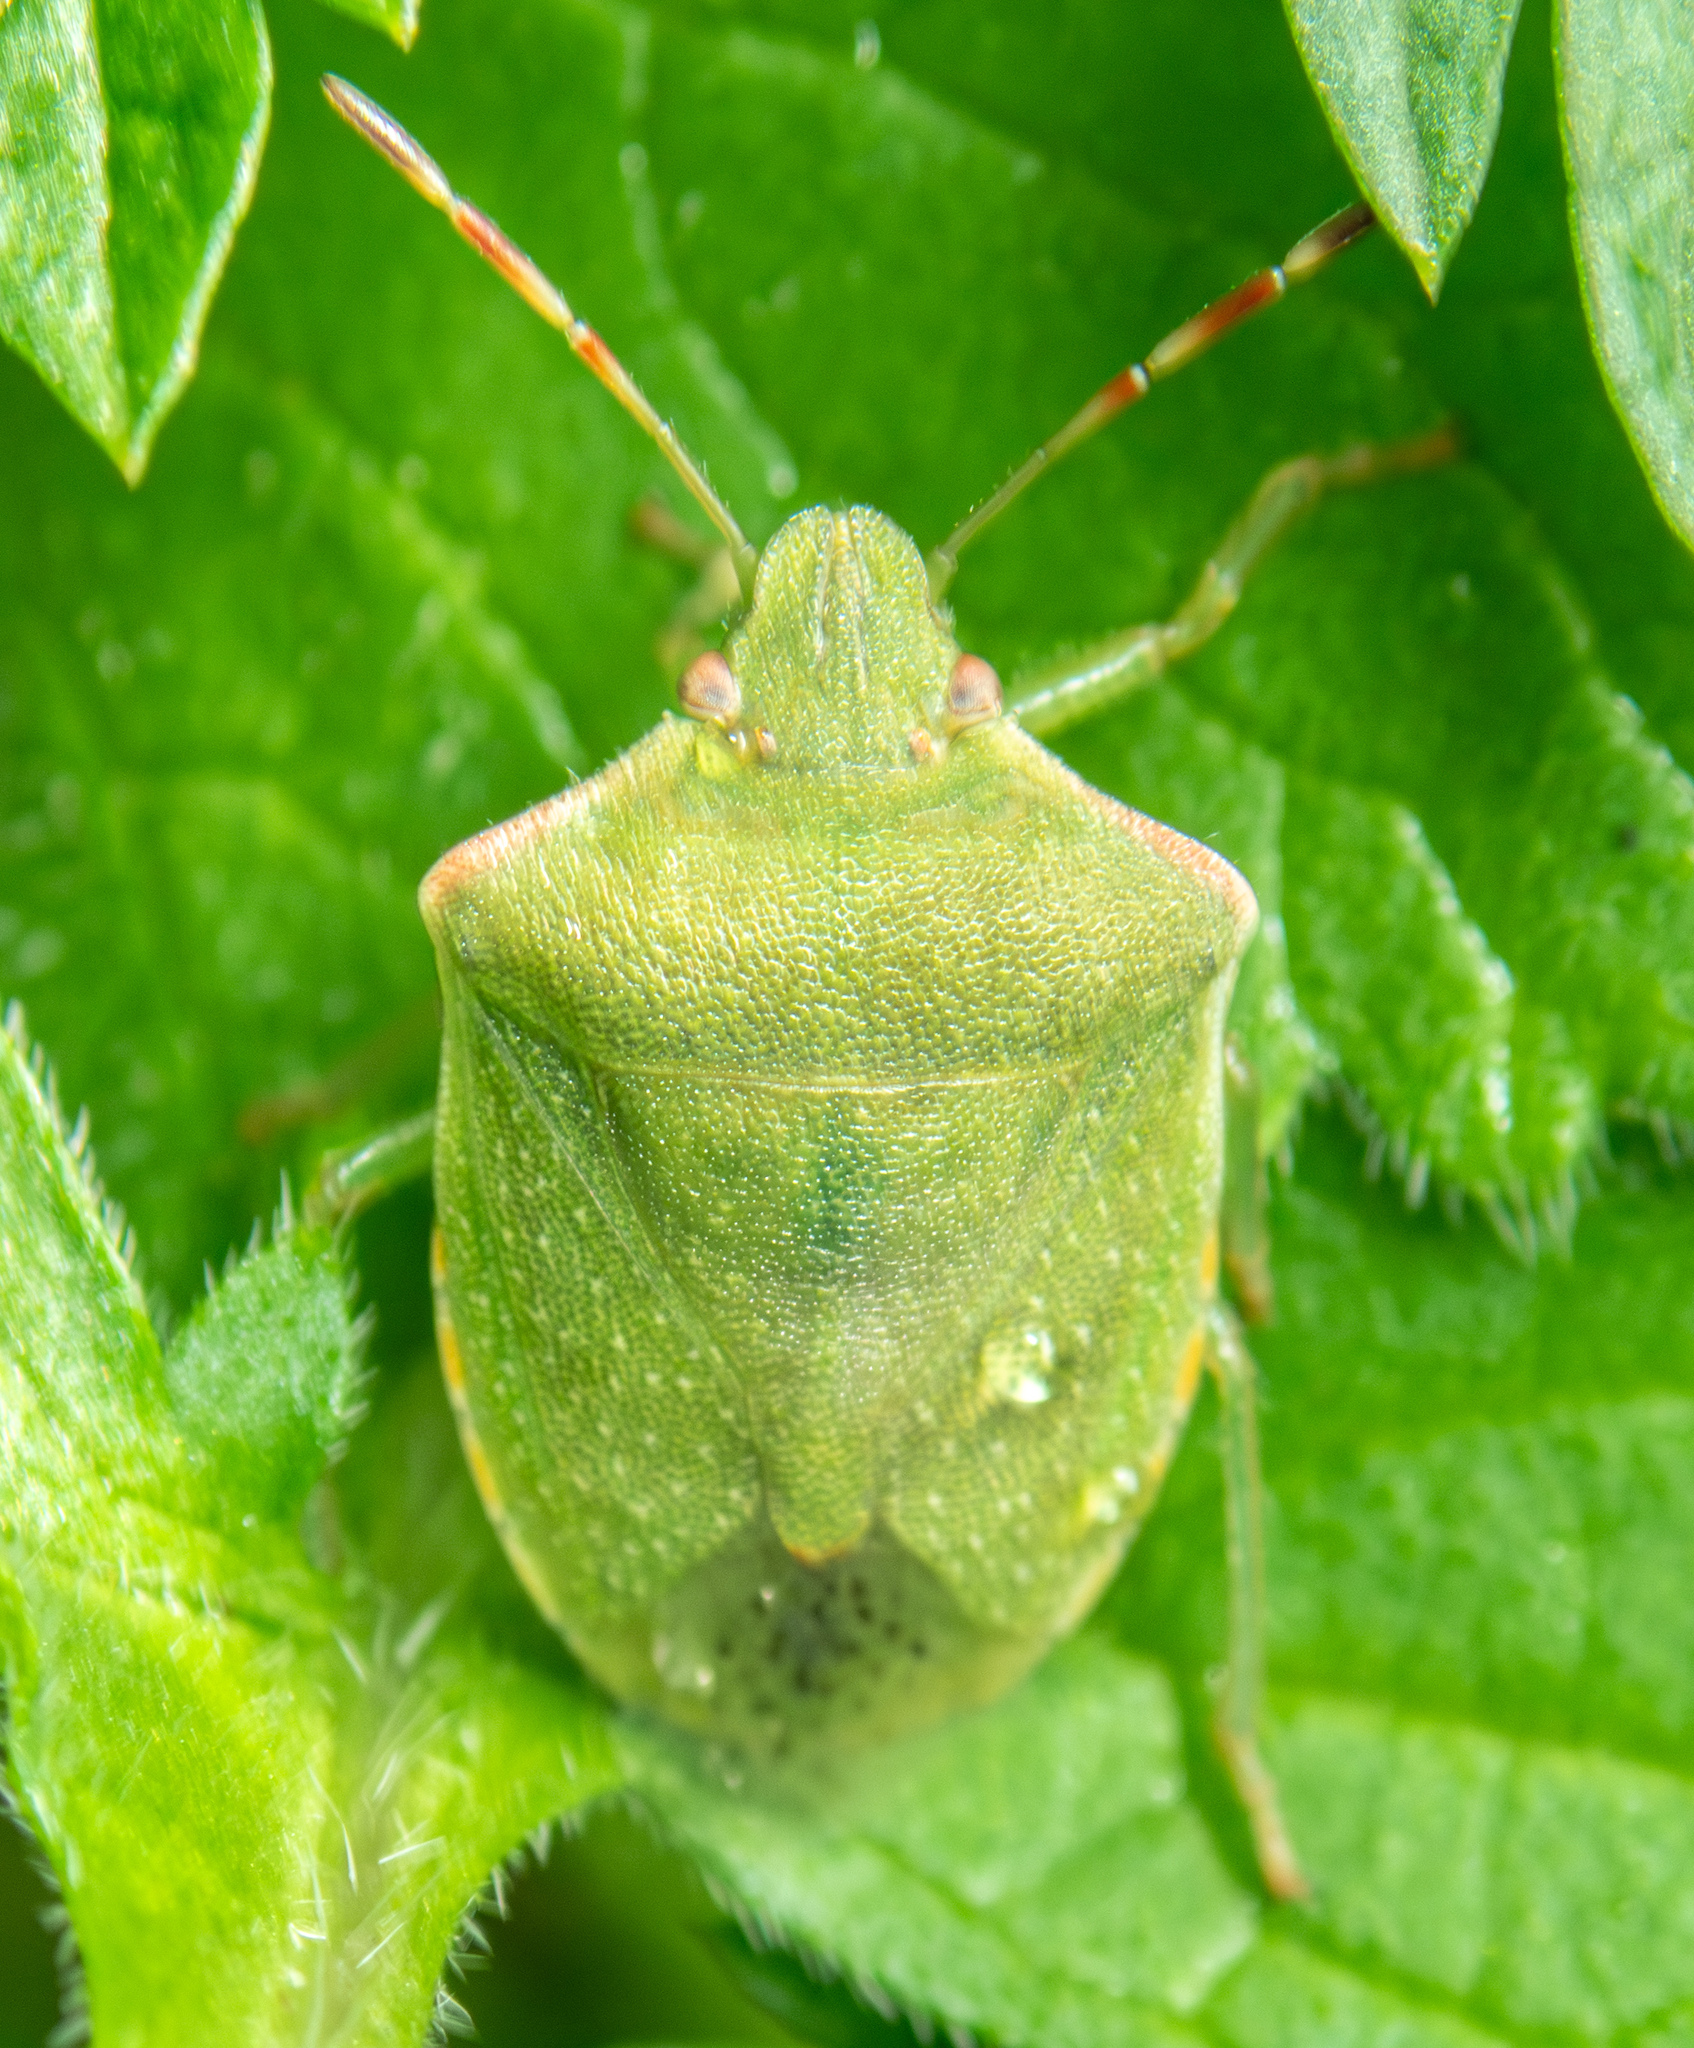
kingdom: Animalia
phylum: Arthropoda
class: Insecta
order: Hemiptera
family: Pentatomidae
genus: Thyanta
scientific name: Thyanta custator
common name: Stink bug
